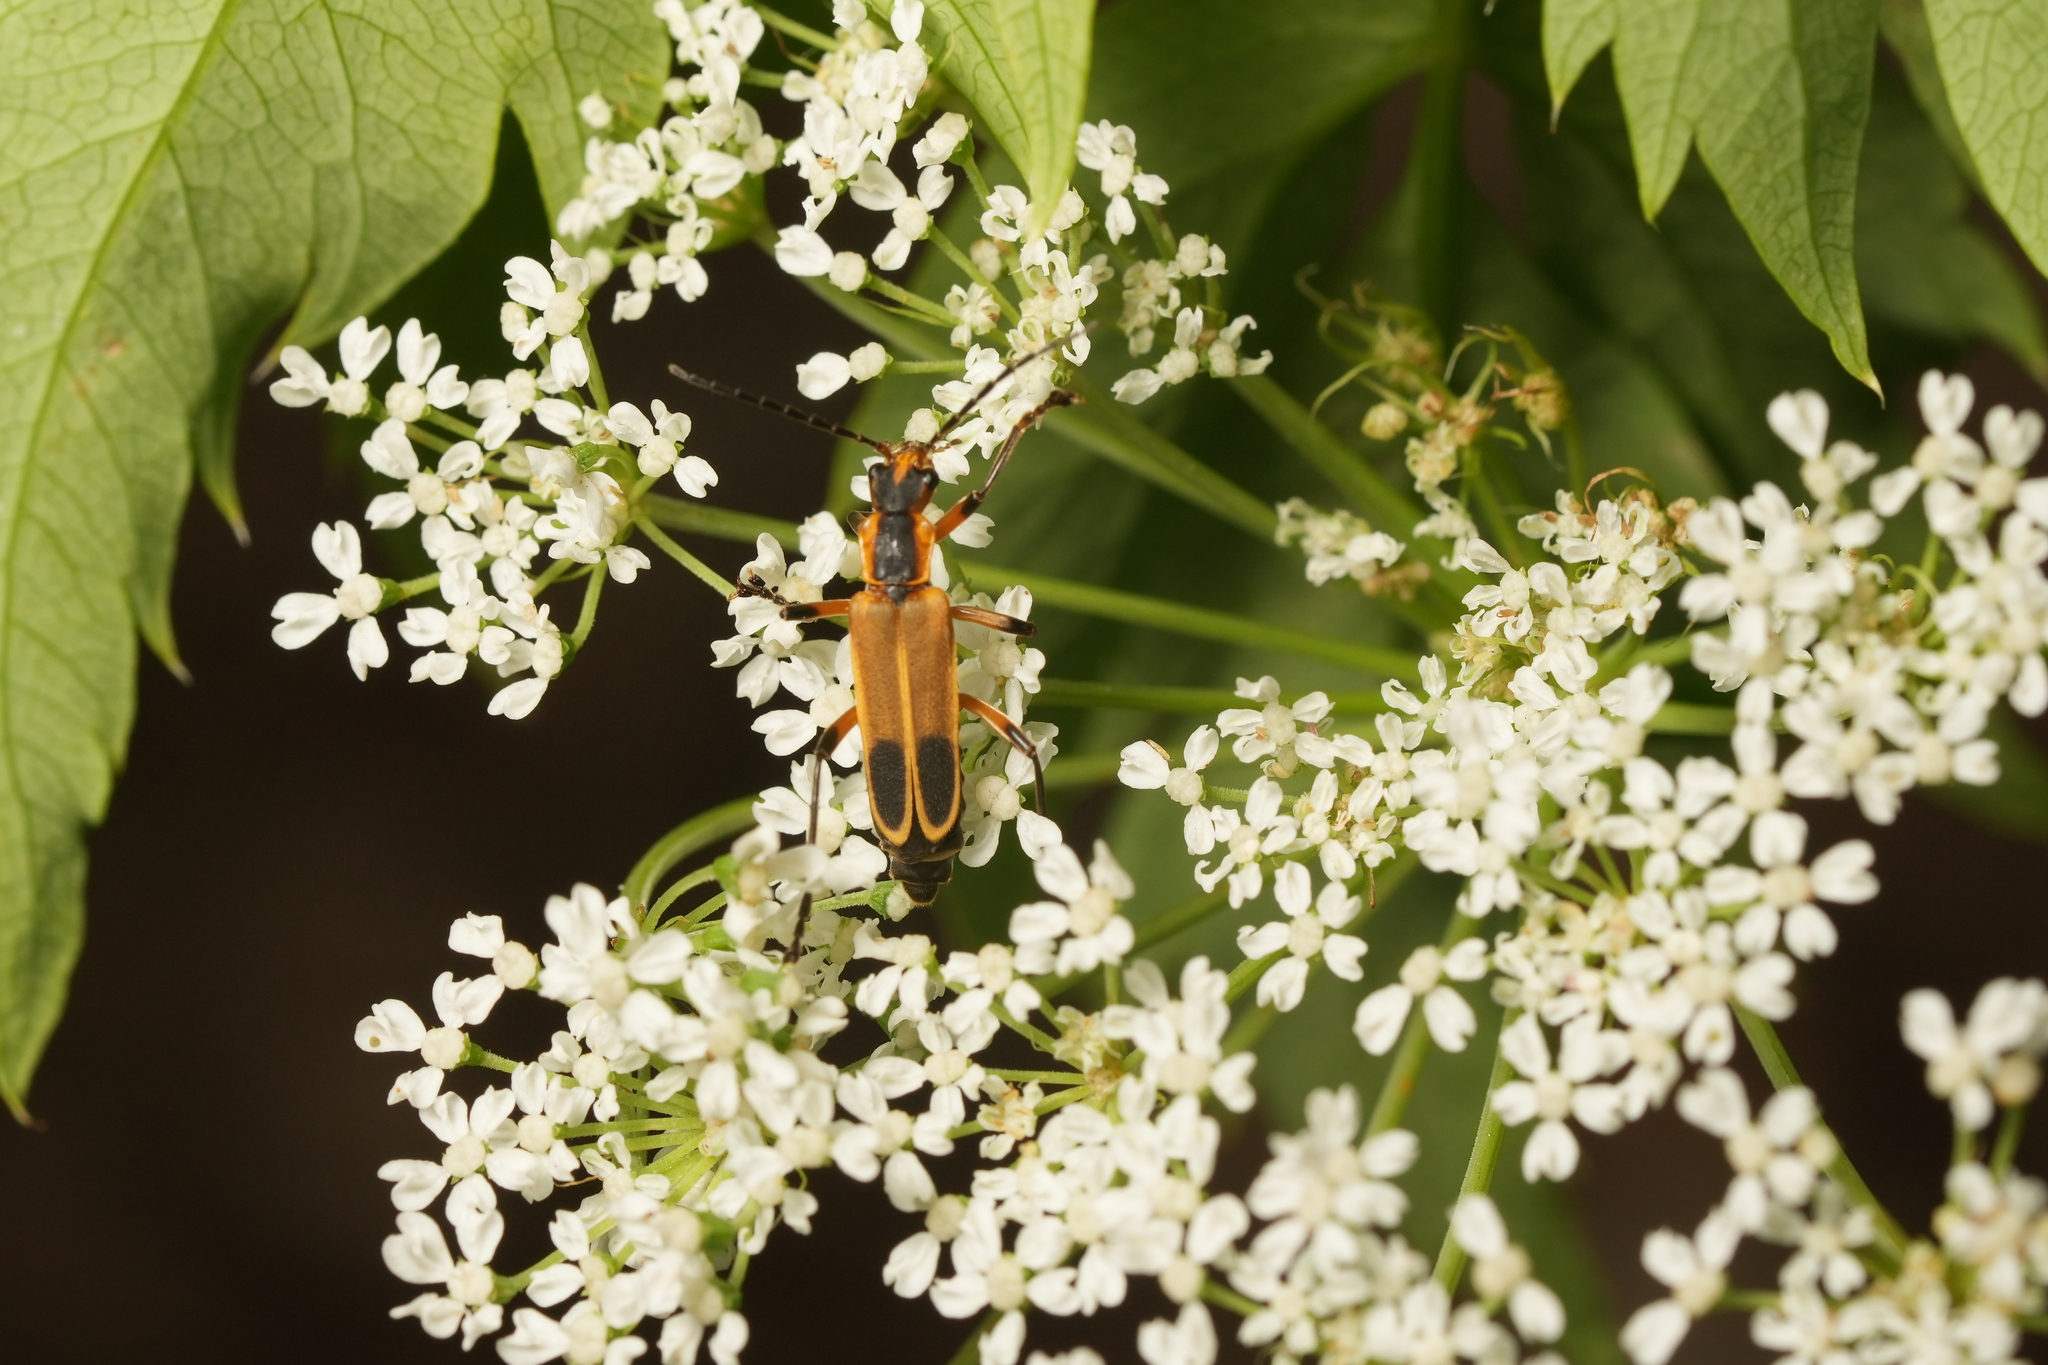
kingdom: Animalia
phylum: Arthropoda
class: Insecta
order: Coleoptera
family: Cantharidae
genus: Chauliognathus
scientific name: Chauliognathus marginatus
